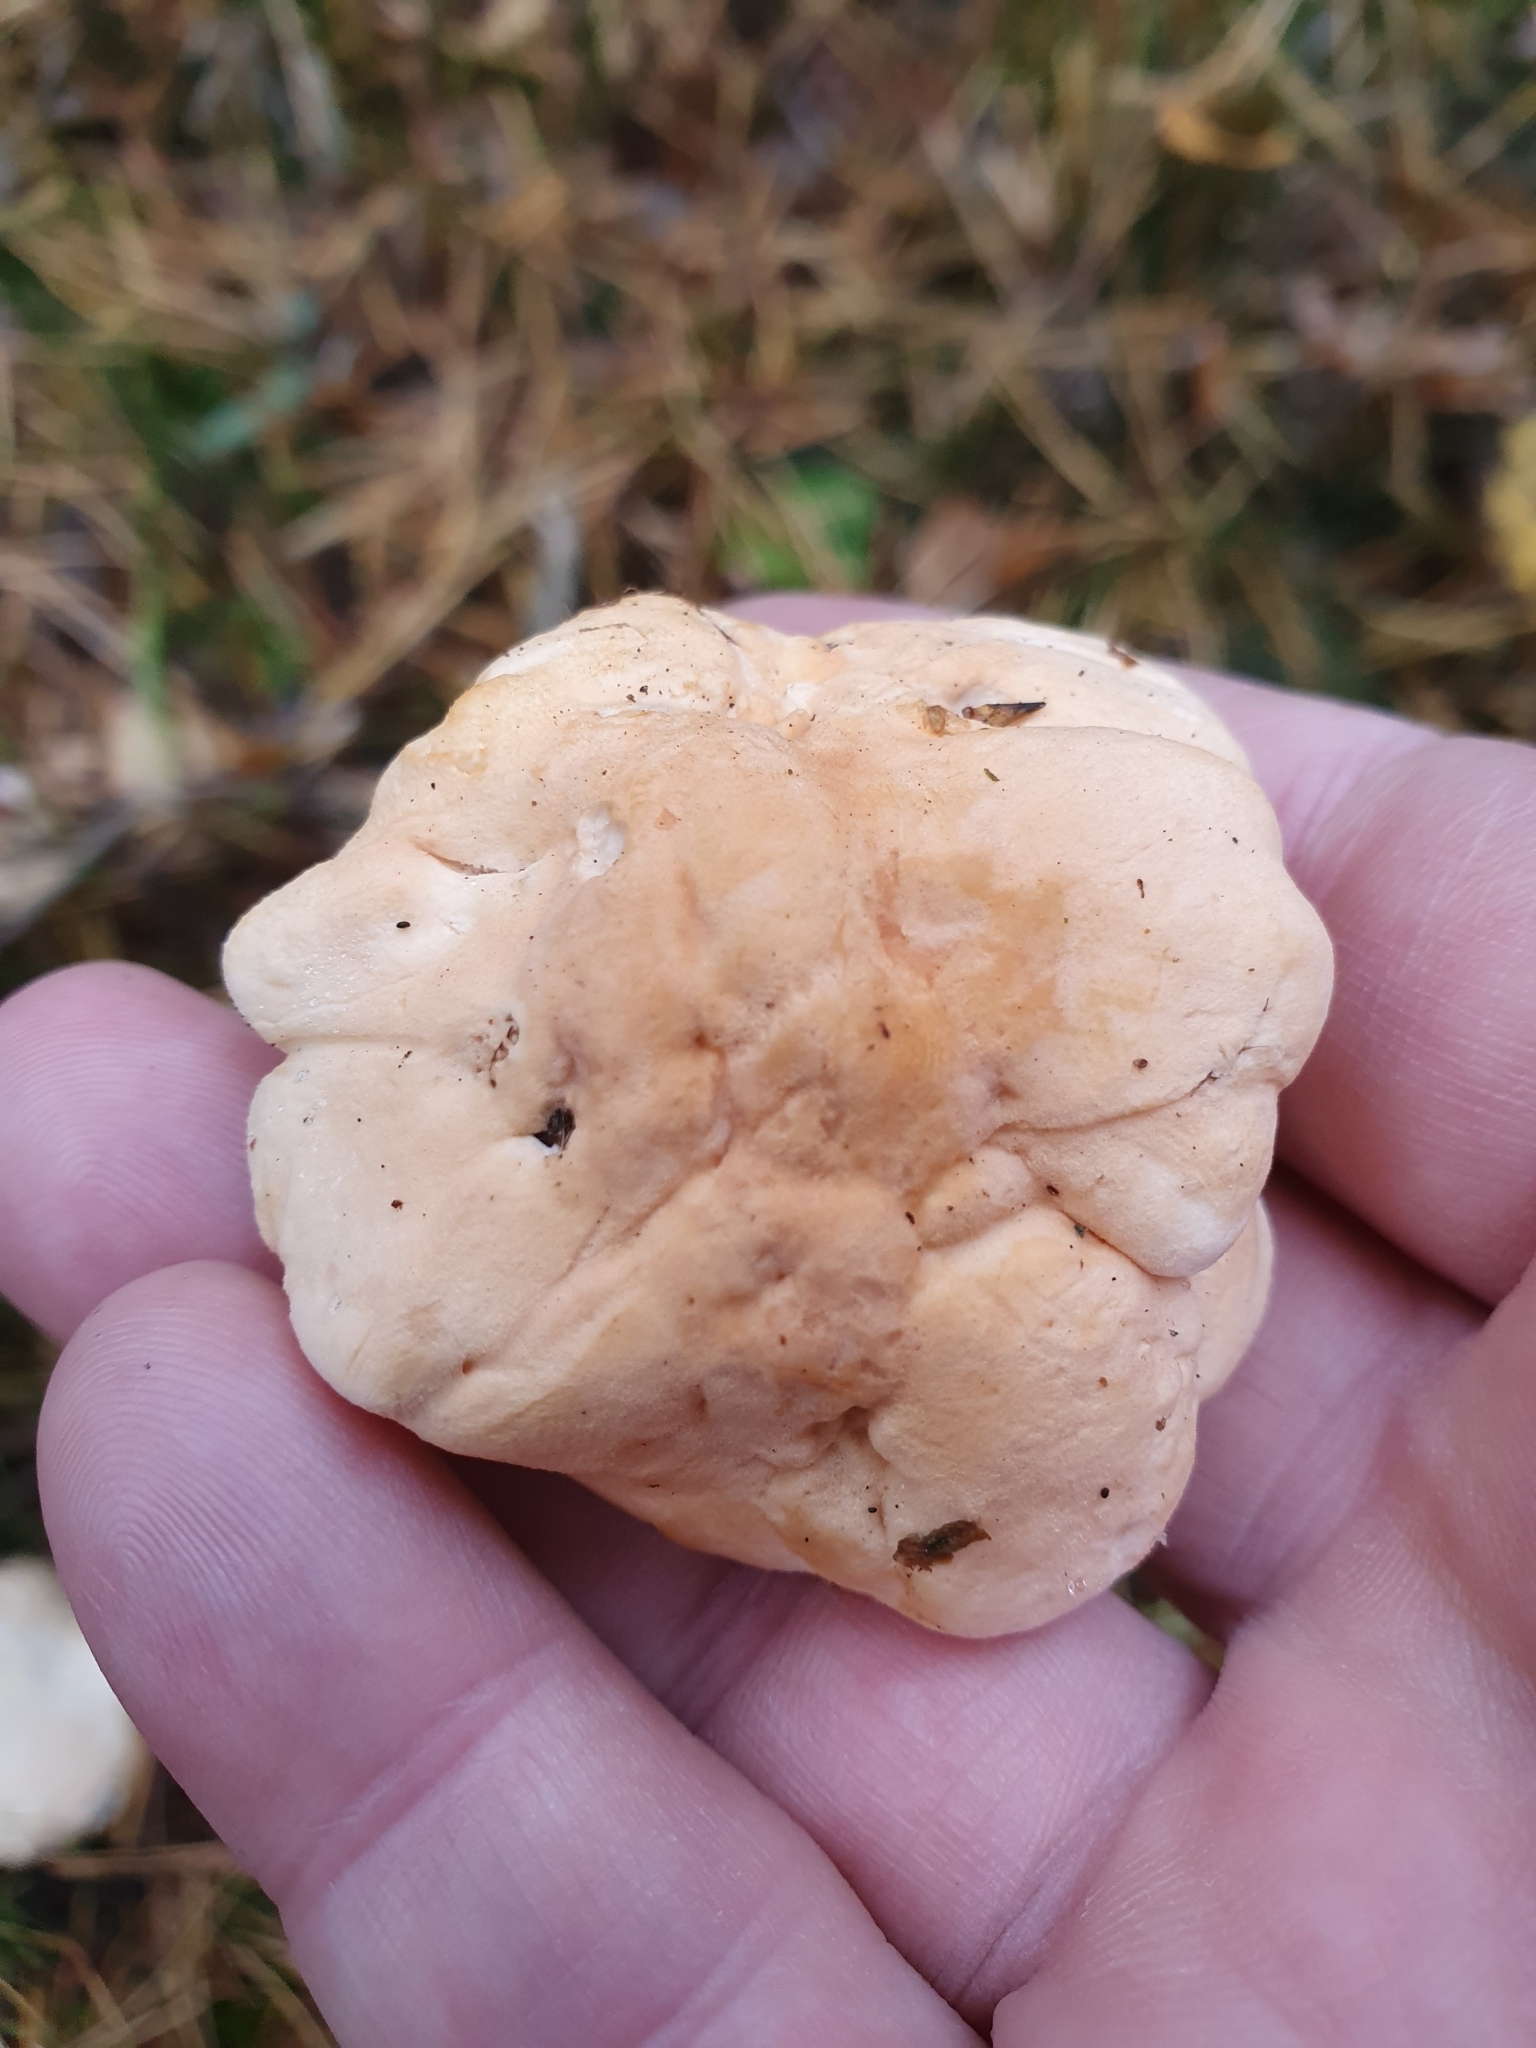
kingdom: Fungi
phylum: Basidiomycota
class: Agaricomycetes
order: Cantharellales
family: Hydnaceae
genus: Hydnum
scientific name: Hydnum repandum
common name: Wood hedgehog
